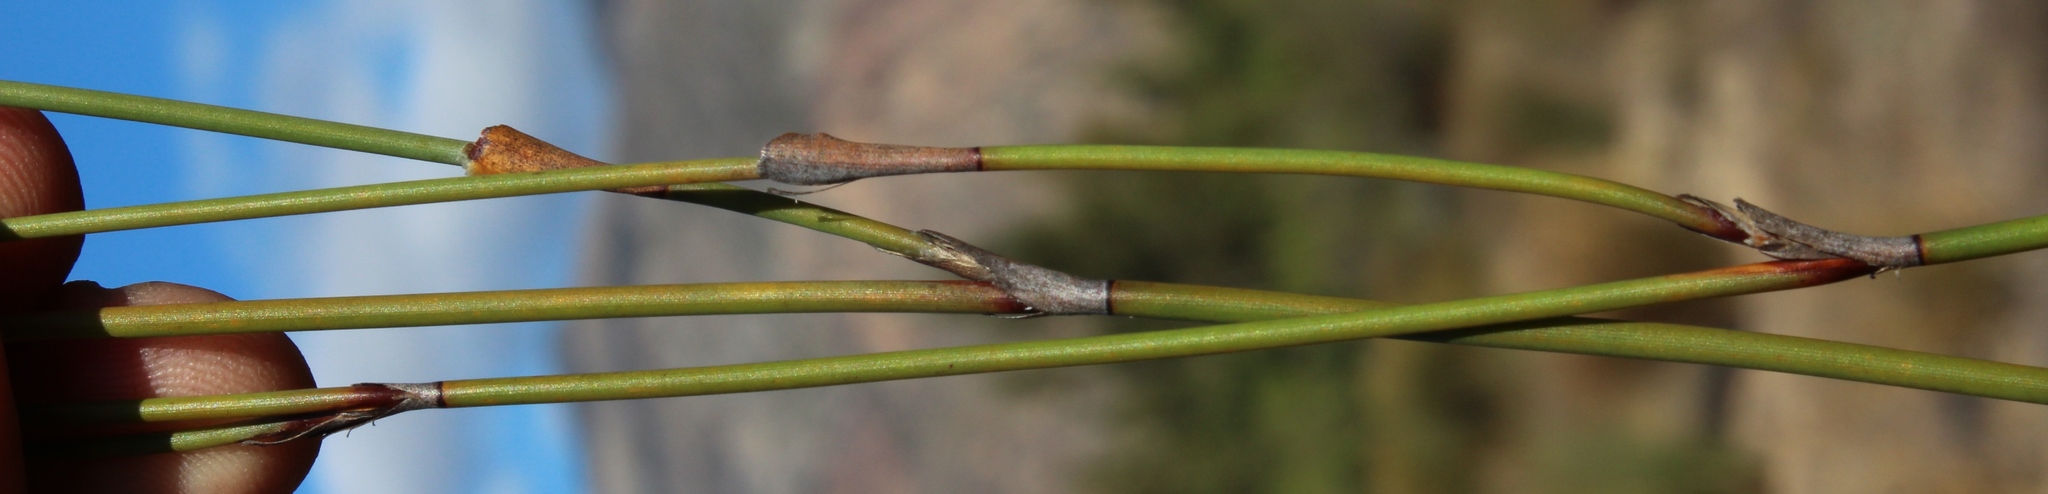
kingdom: Plantae
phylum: Tracheophyta
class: Liliopsida
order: Poales
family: Restionaceae
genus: Willdenowia
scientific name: Willdenowia incurvata
